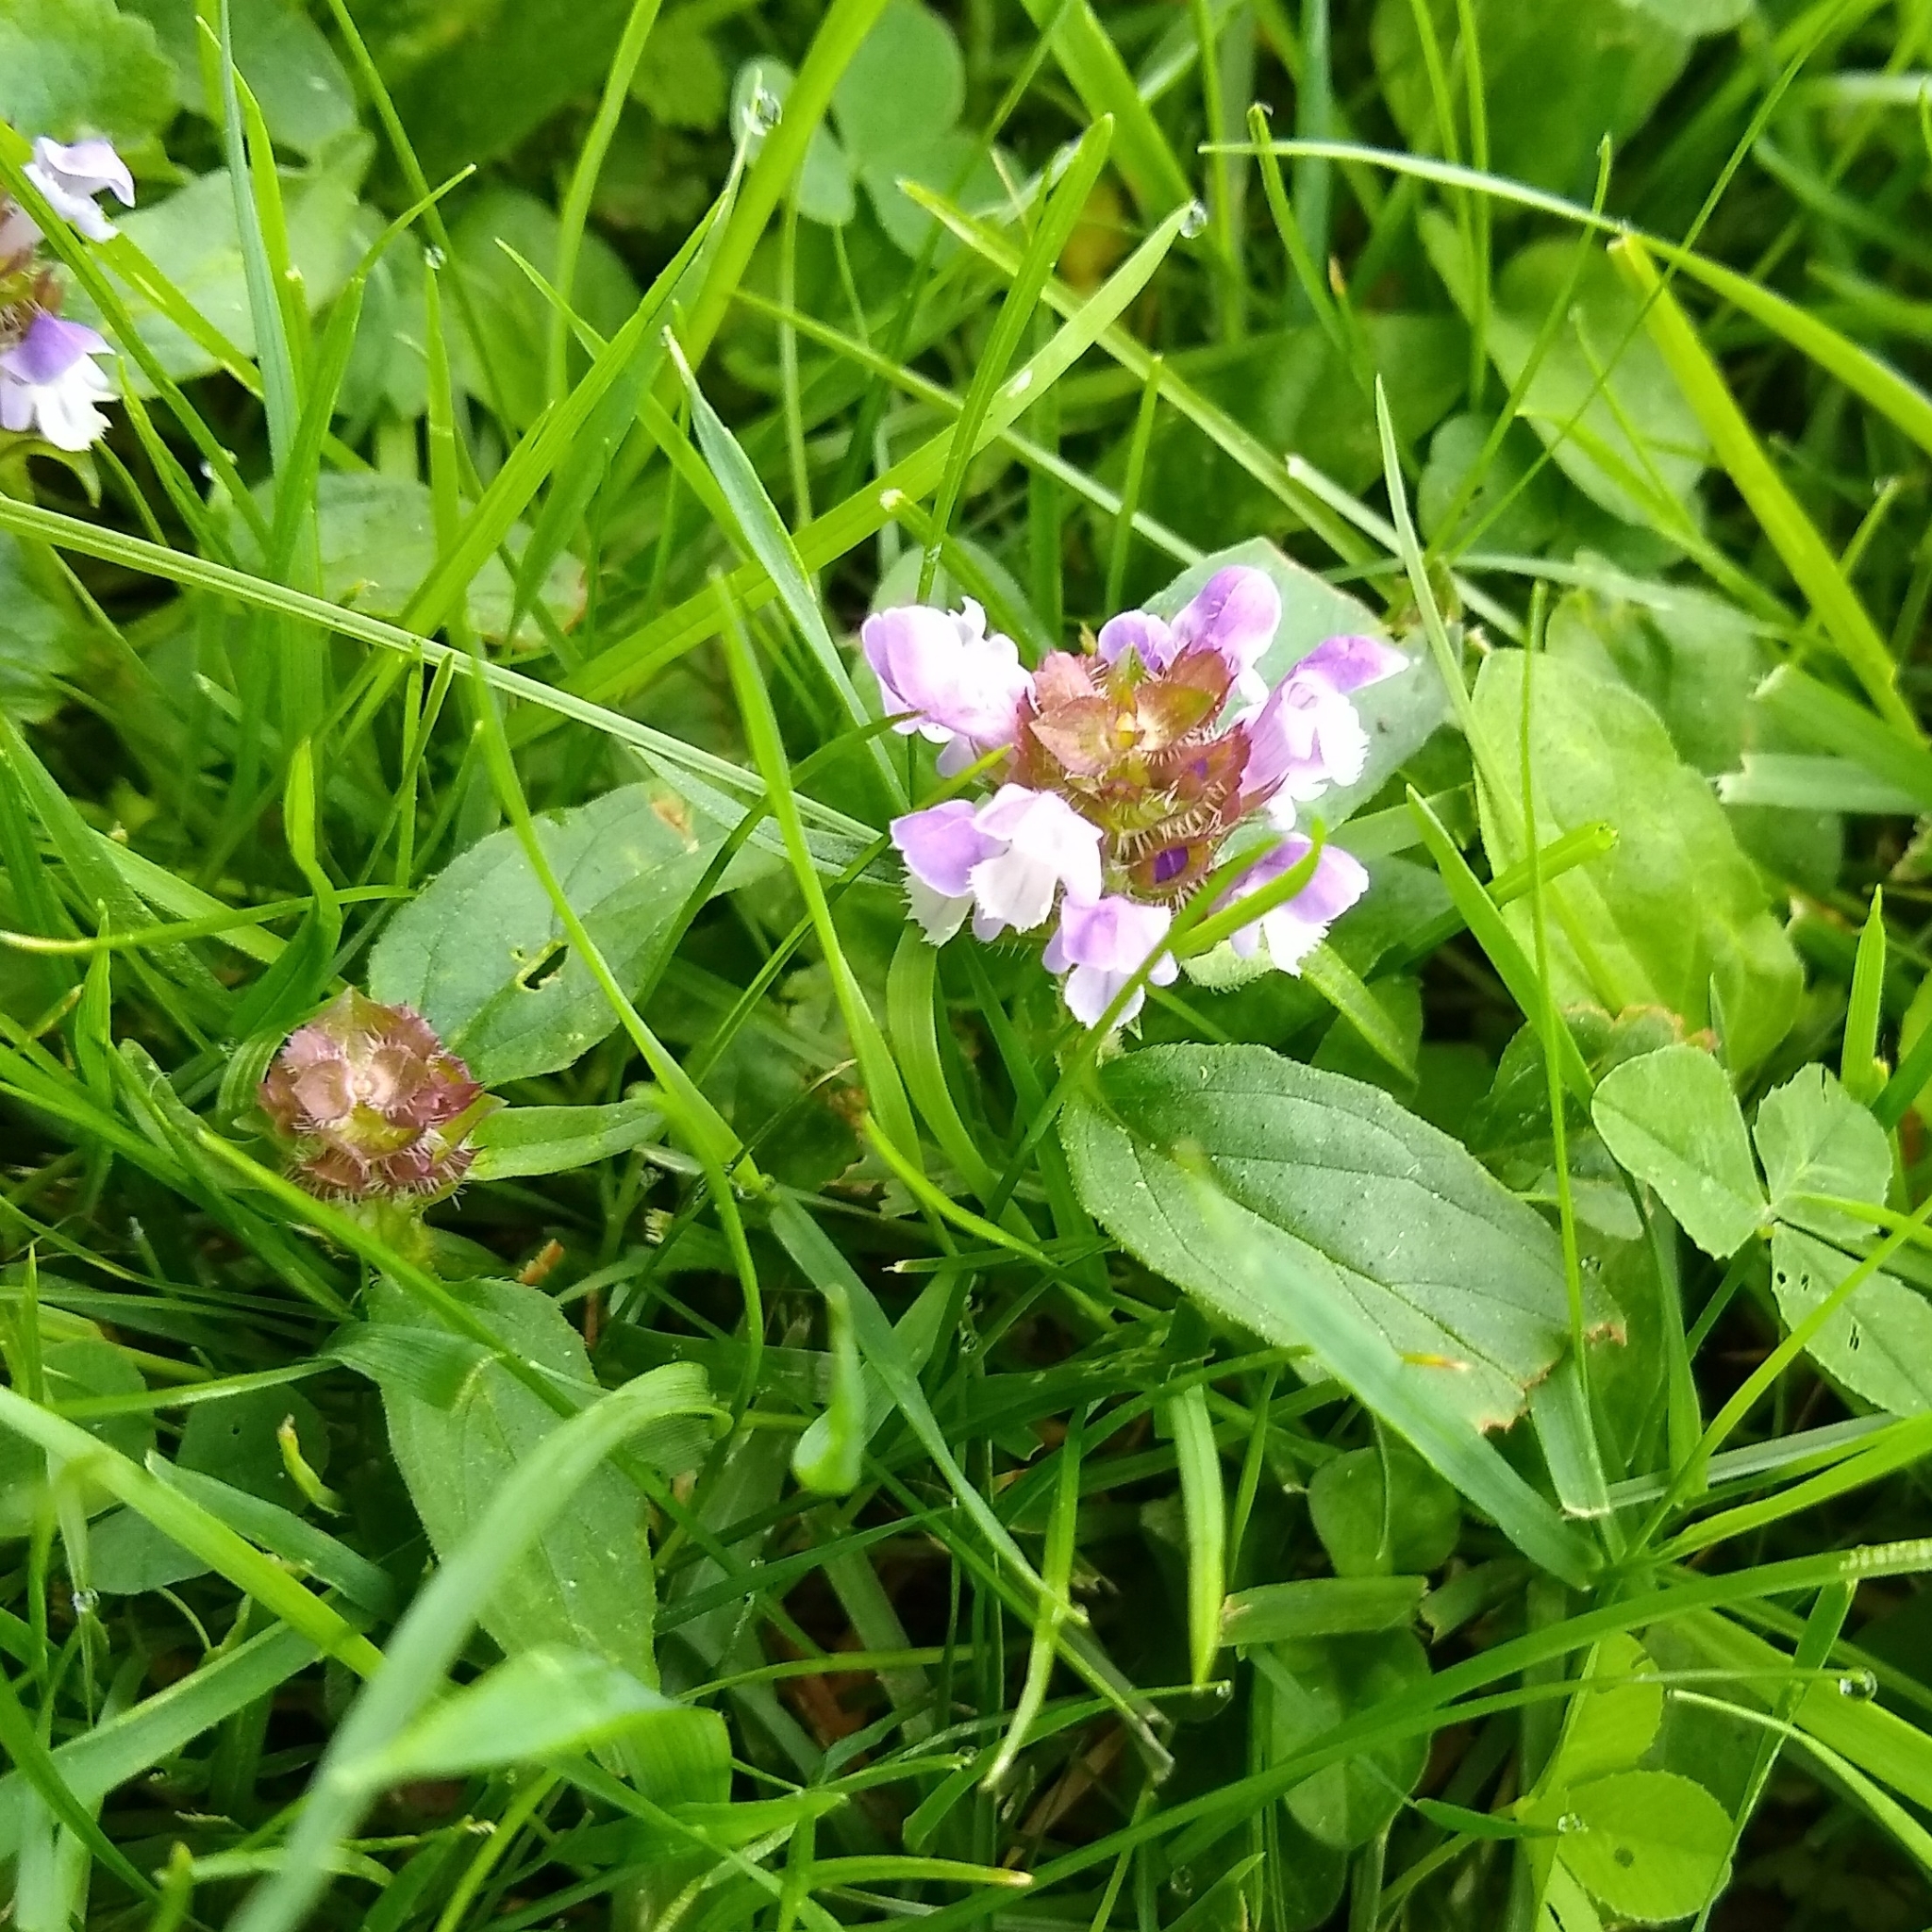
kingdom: Plantae
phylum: Tracheophyta
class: Magnoliopsida
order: Lamiales
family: Lamiaceae
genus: Prunella
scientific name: Prunella vulgaris
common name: Heal-all
